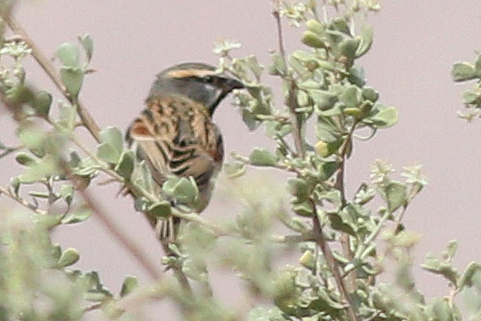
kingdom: Animalia
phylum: Chordata
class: Aves
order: Passeriformes
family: Passeridae
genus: Passer
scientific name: Passer moabiticus
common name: Dead sea sparrow
